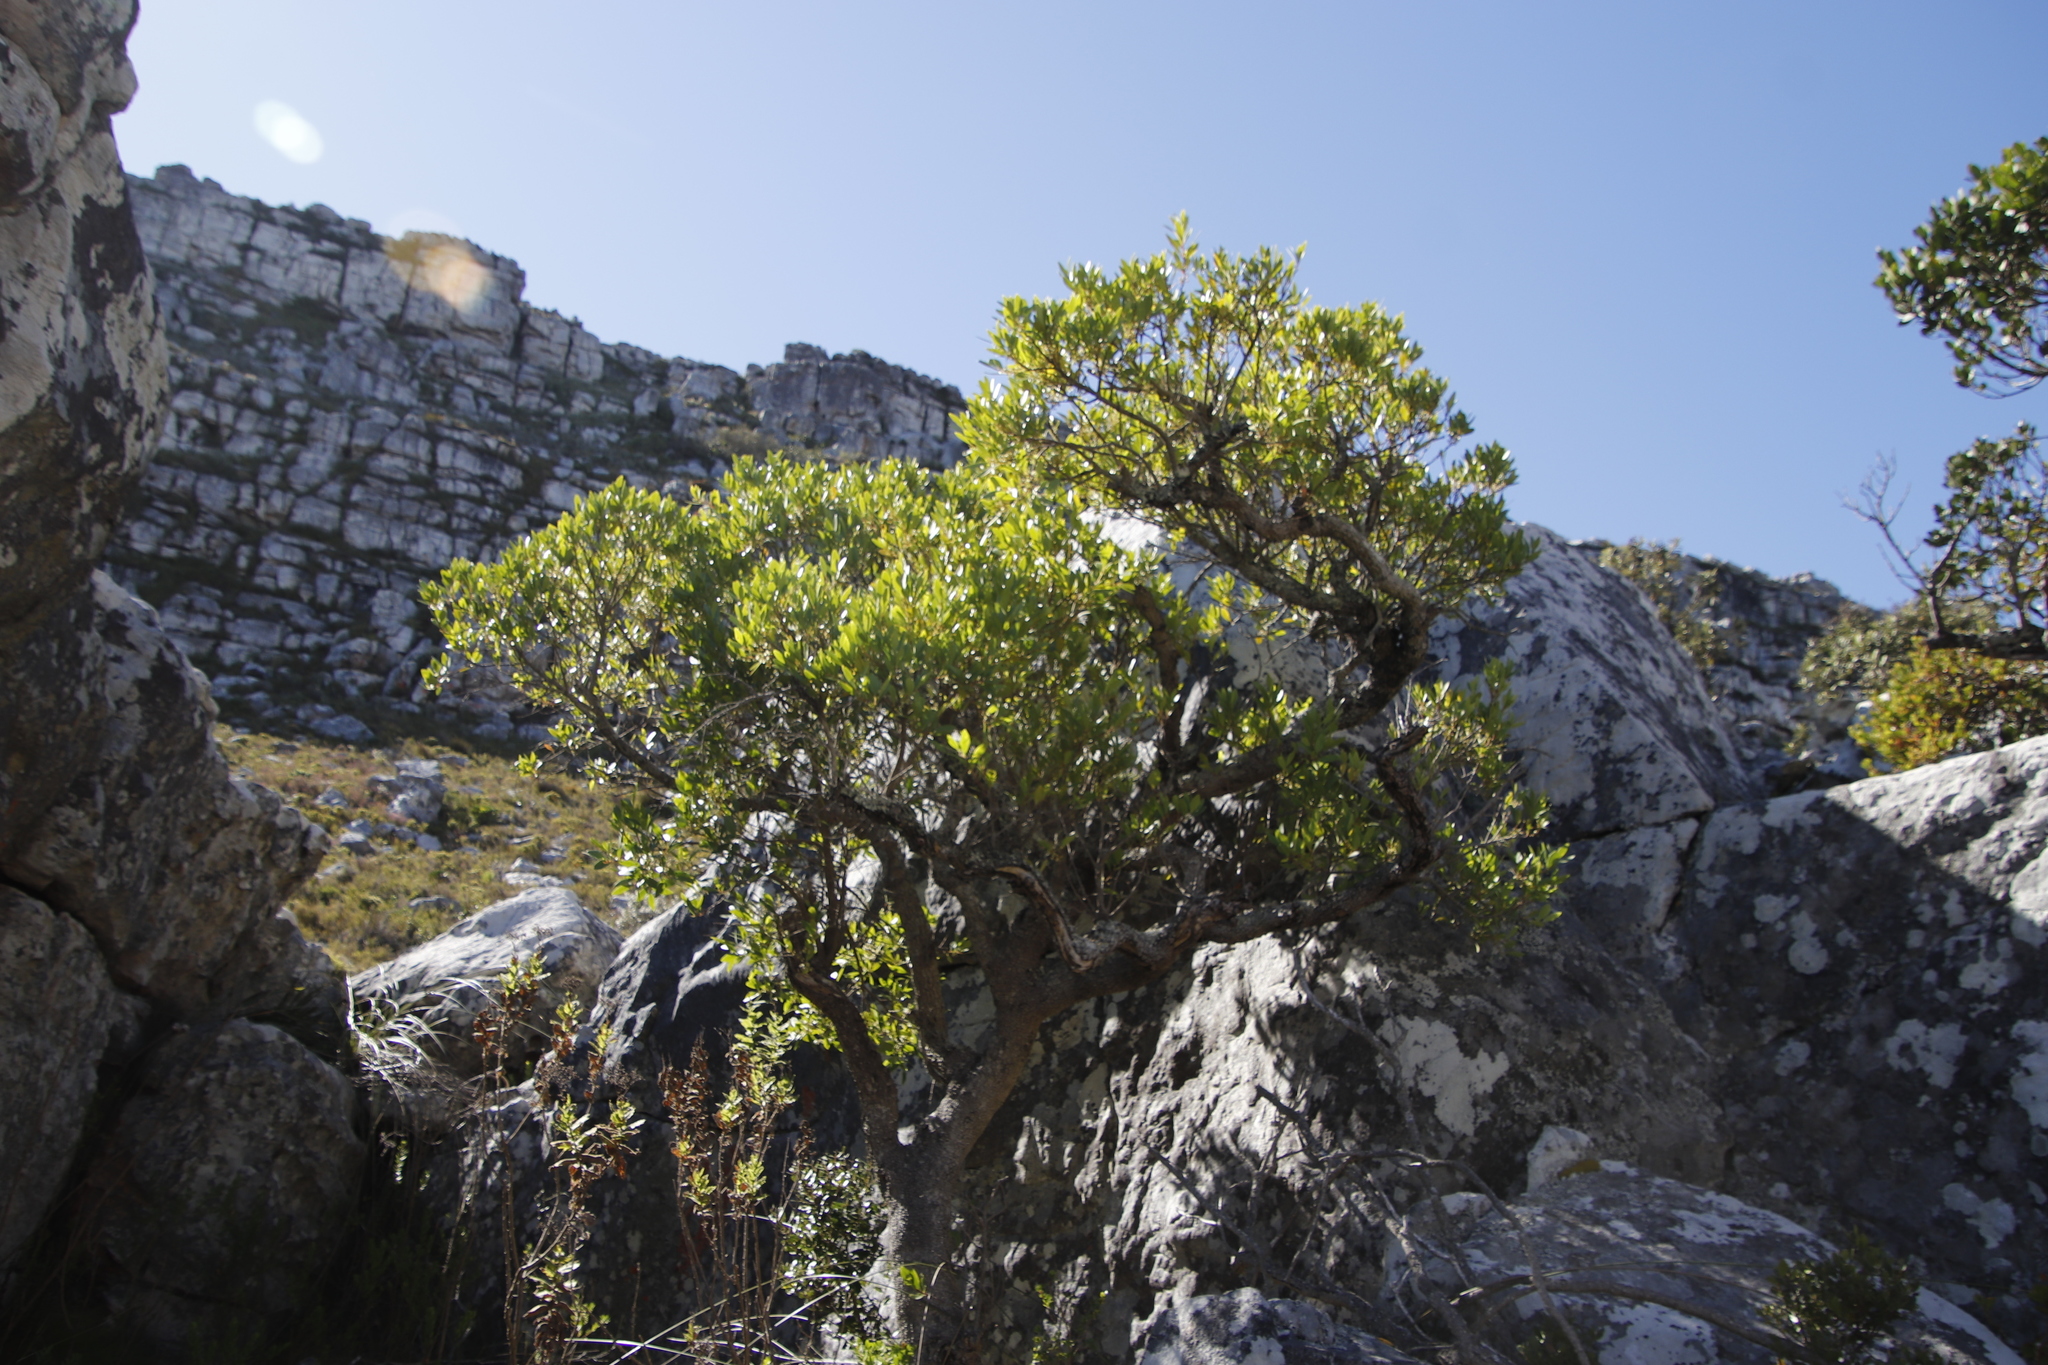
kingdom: Plantae
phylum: Tracheophyta
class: Magnoliopsida
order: Celastrales
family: Celastraceae
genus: Gymnosporia
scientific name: Gymnosporia laurina
